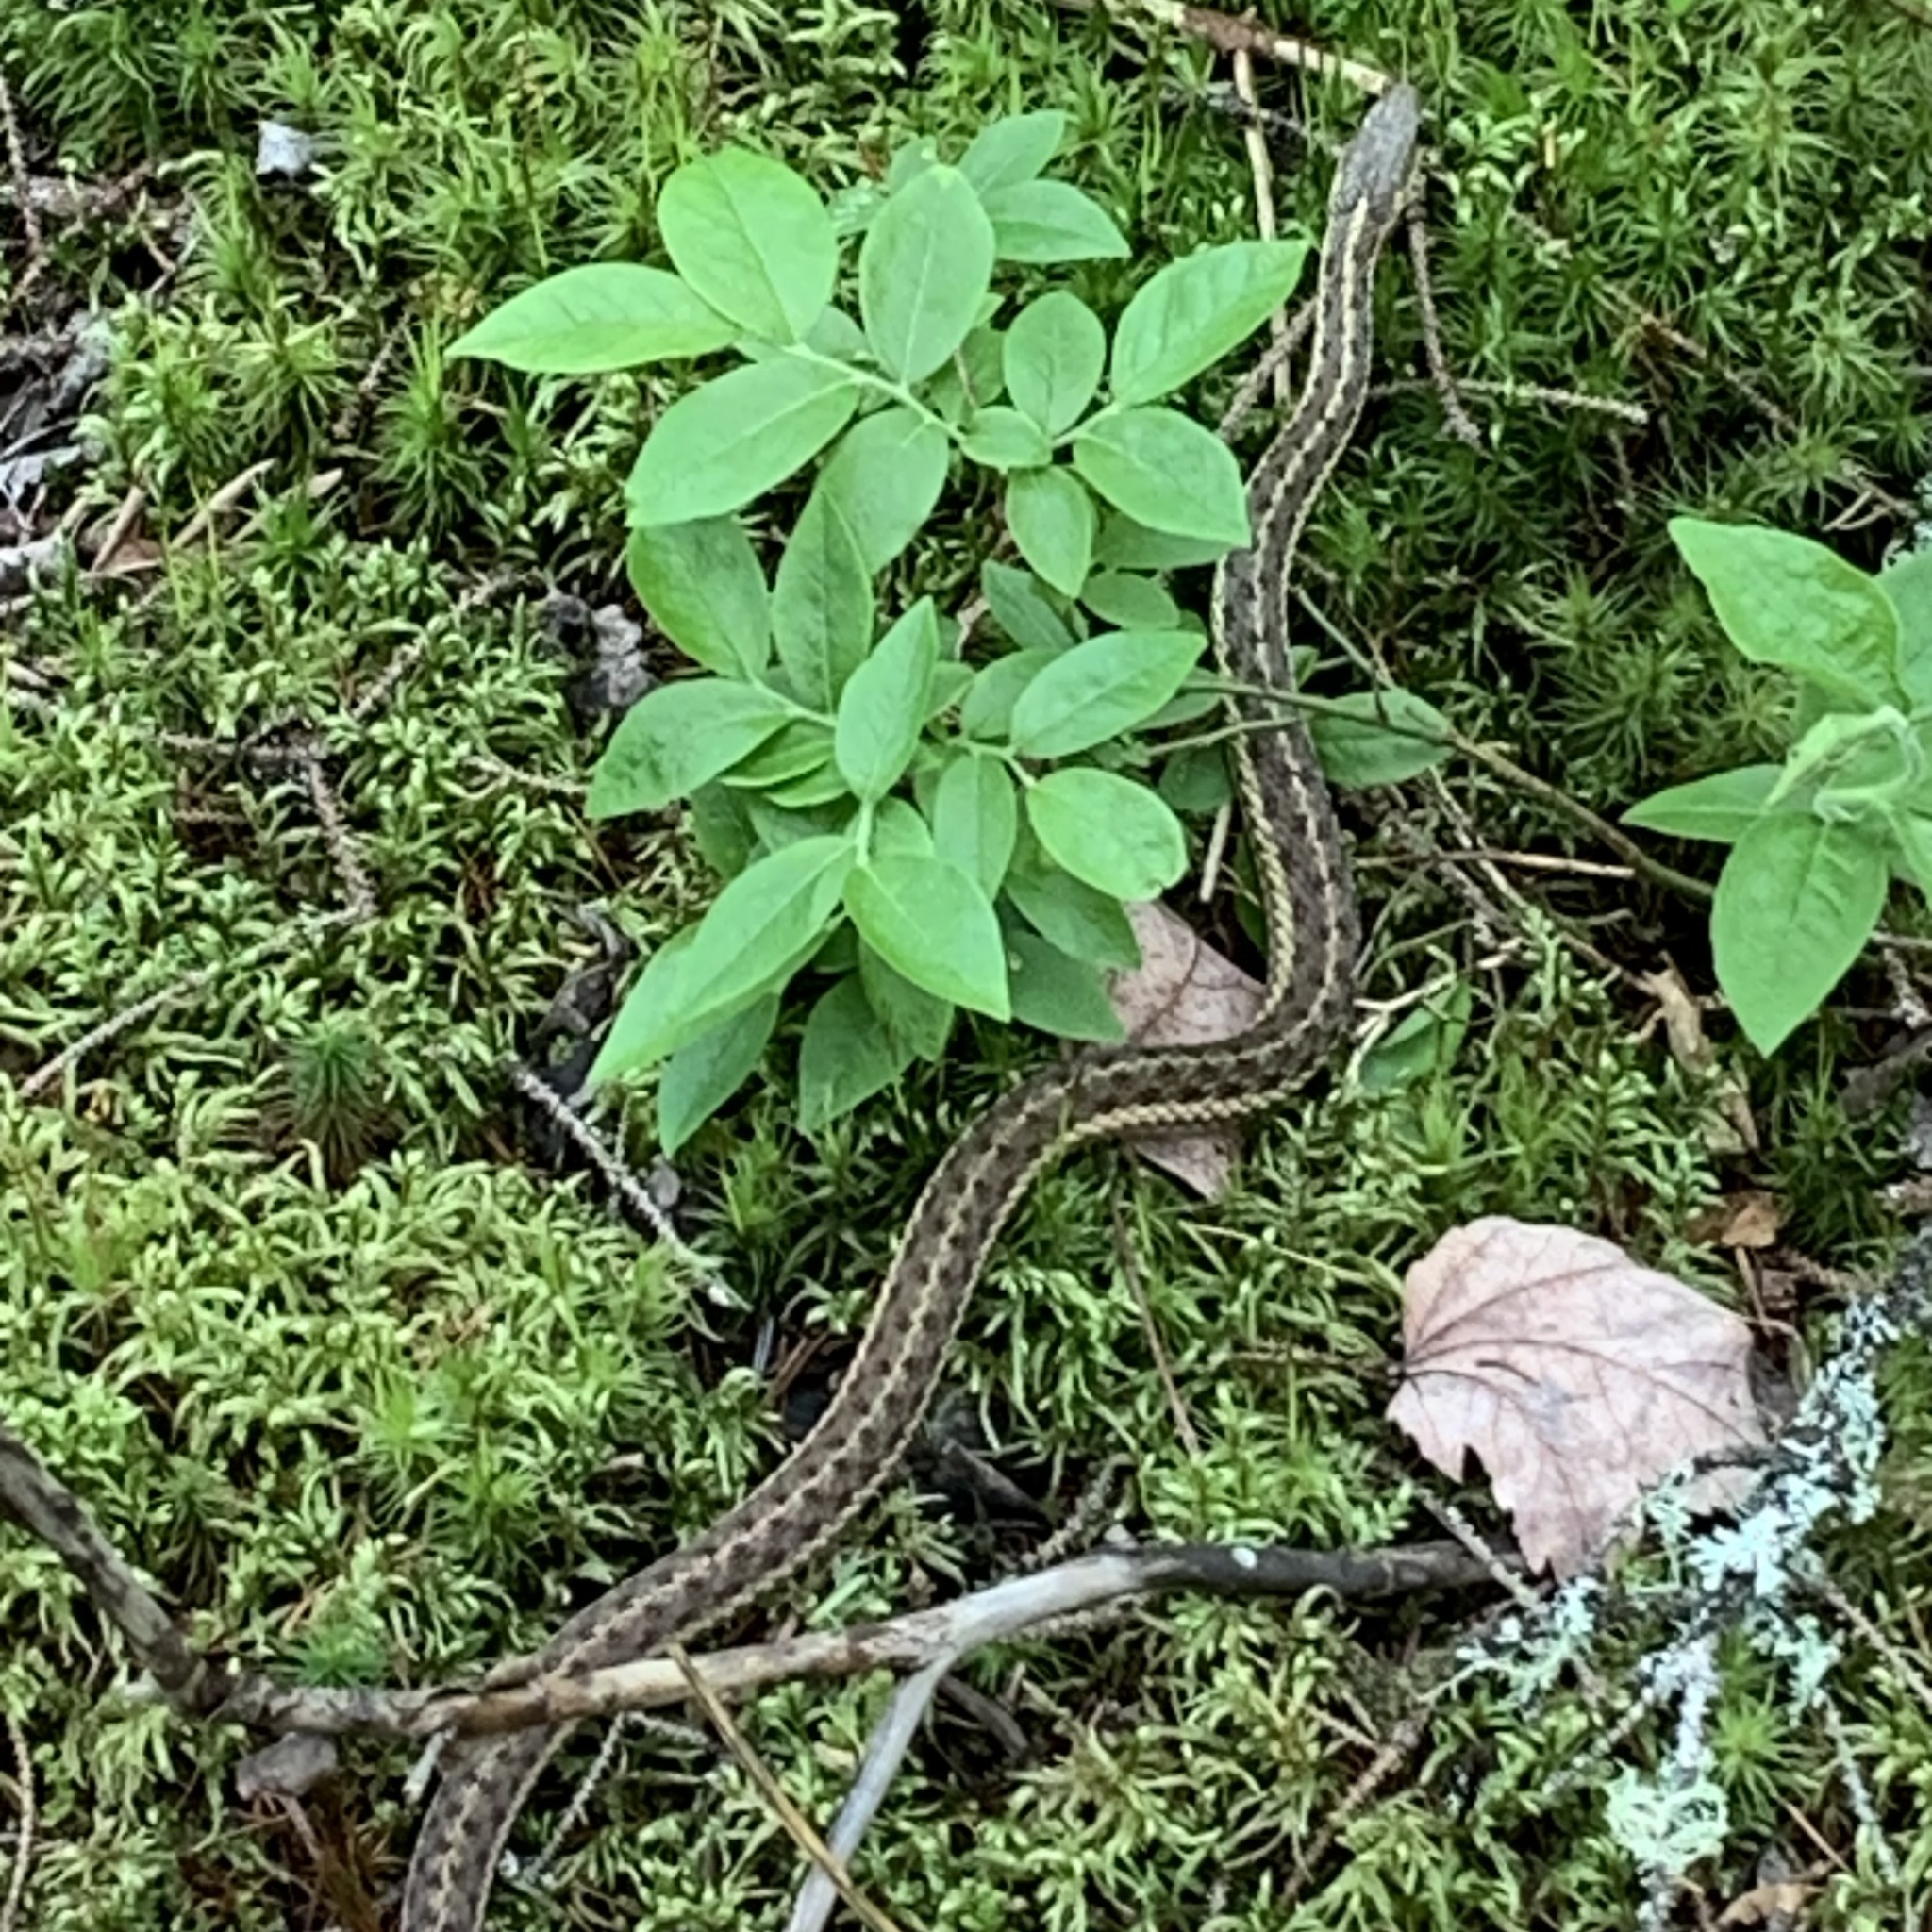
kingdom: Animalia
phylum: Chordata
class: Squamata
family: Colubridae
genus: Thamnophis
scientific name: Thamnophis sirtalis
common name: Common garter snake
